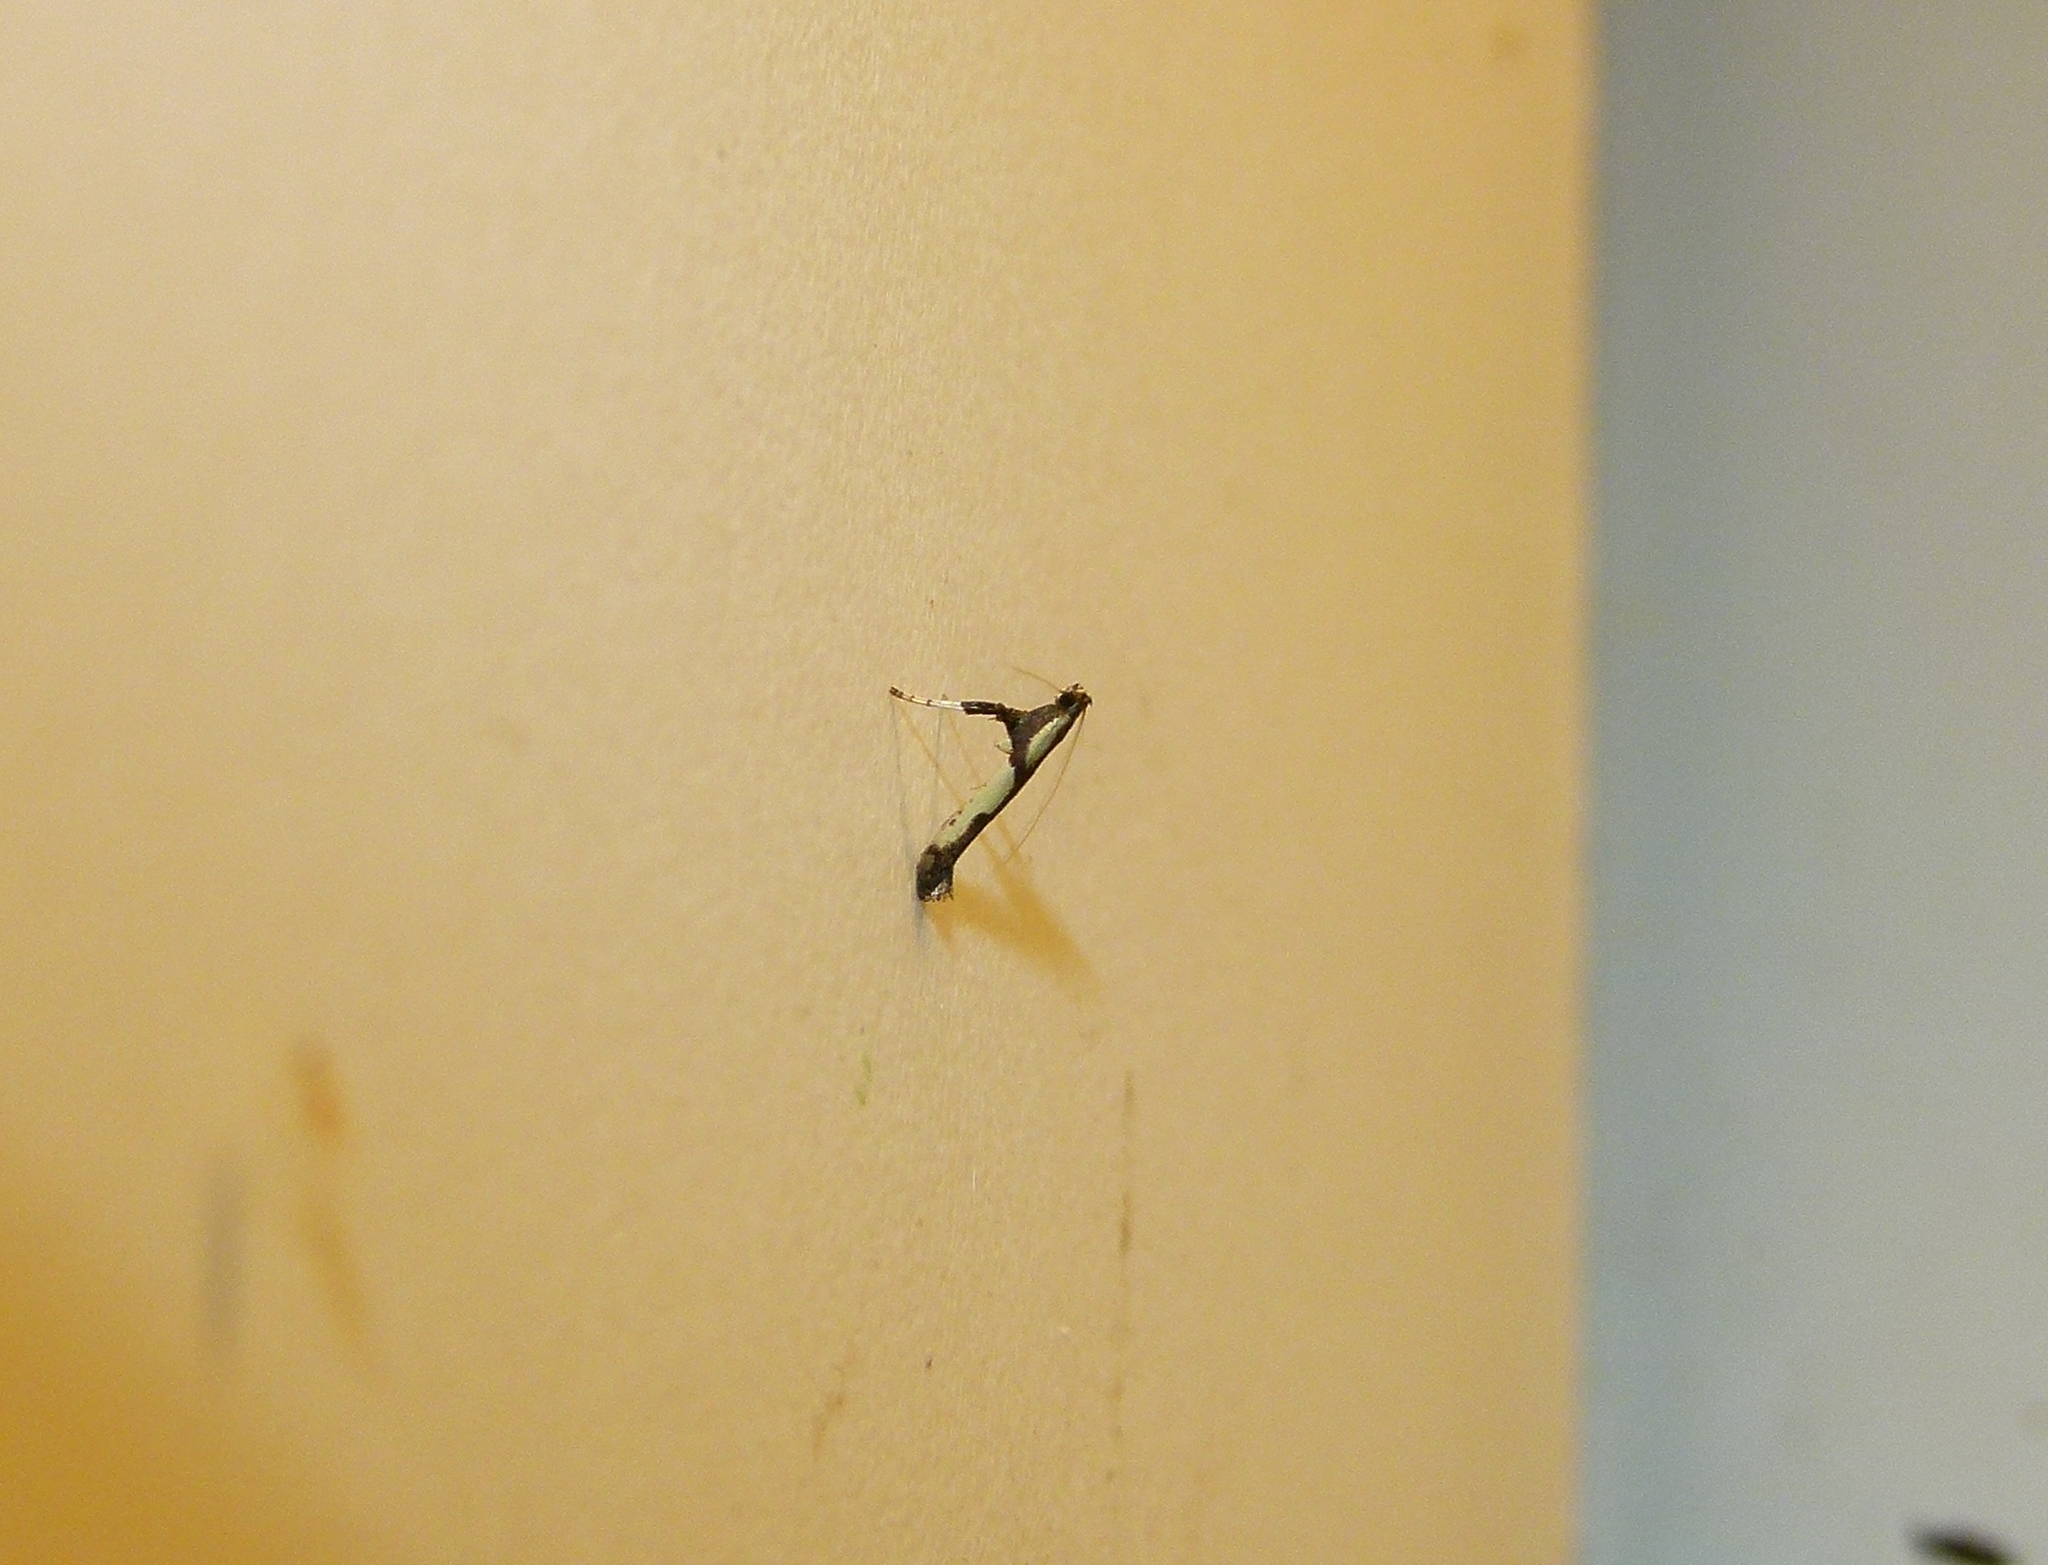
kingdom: Animalia
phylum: Arthropoda
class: Insecta
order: Lepidoptera
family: Gracillariidae
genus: Caloptilia
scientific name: Caloptilia blandella
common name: Walnut caloptilia moth
